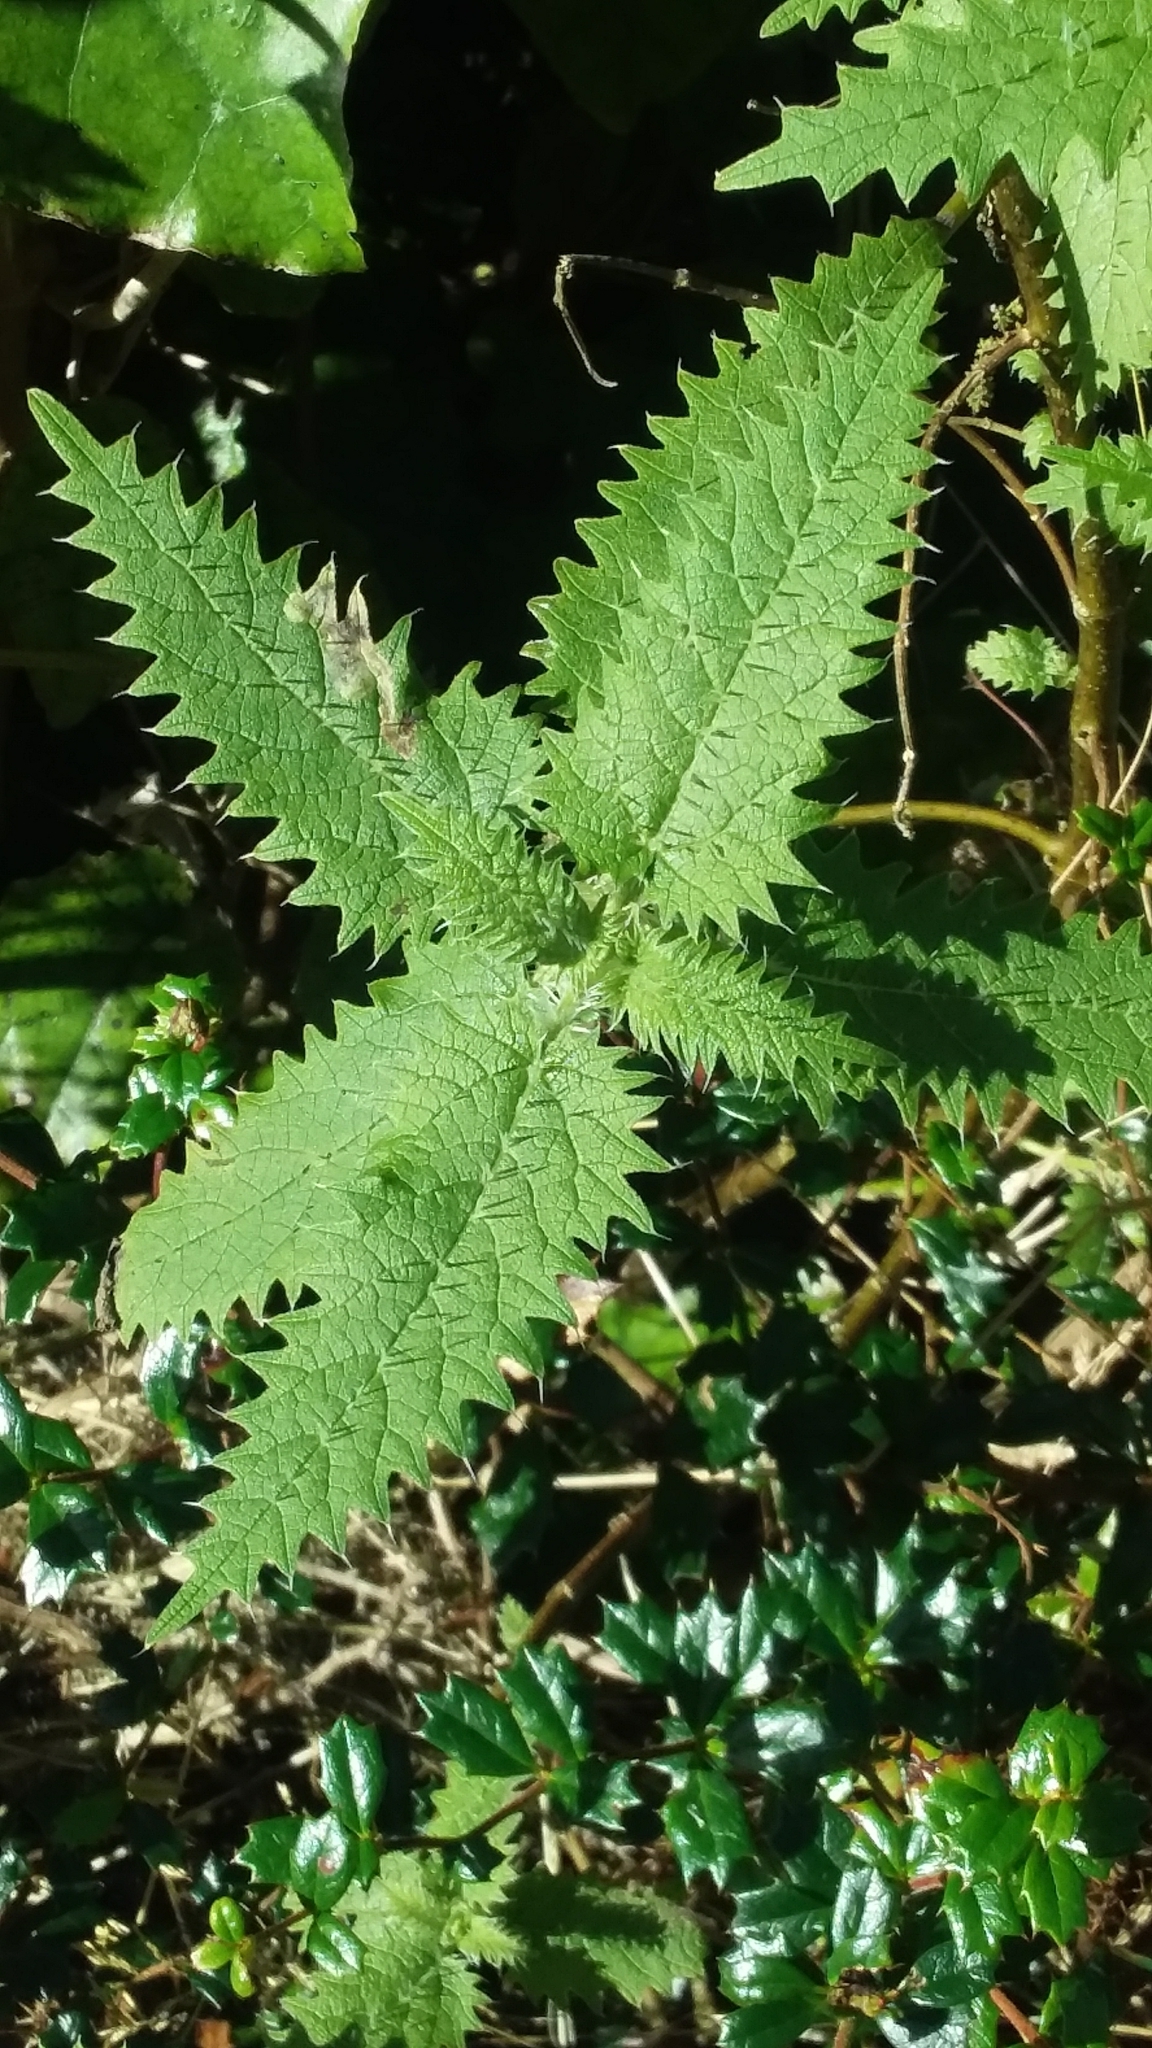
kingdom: Plantae
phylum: Tracheophyta
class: Magnoliopsida
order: Rosales
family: Urticaceae
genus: Urtica
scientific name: Urtica ferox
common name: Tree nettle
